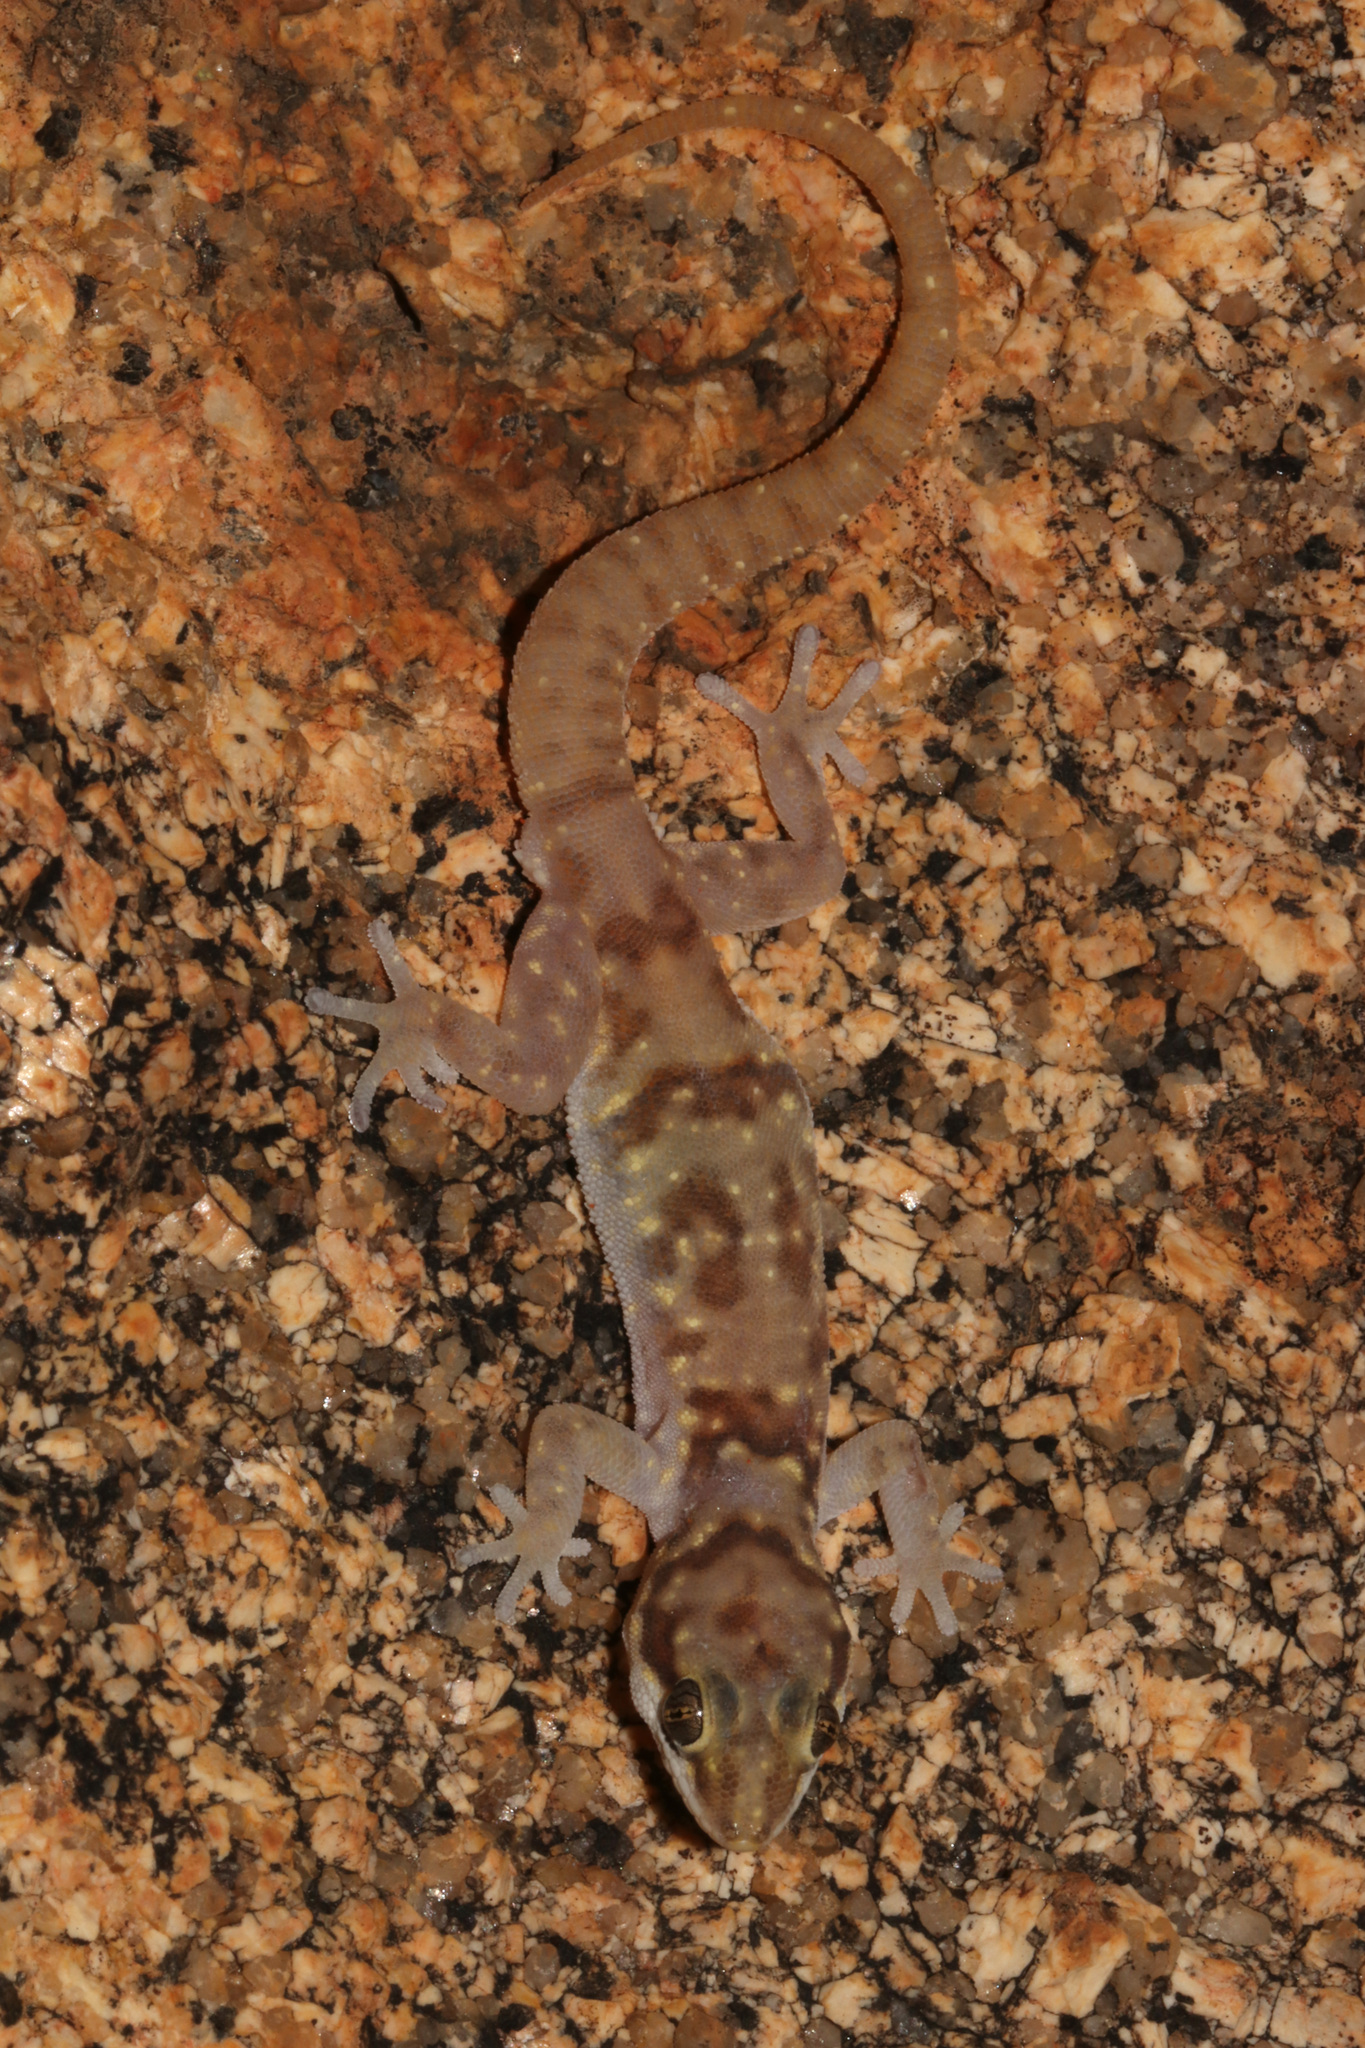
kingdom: Animalia
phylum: Chordata
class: Squamata
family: Gekkonidae
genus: Pachydactylus
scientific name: Pachydactylus bicolor
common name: Two-colored thick-toed gecko
